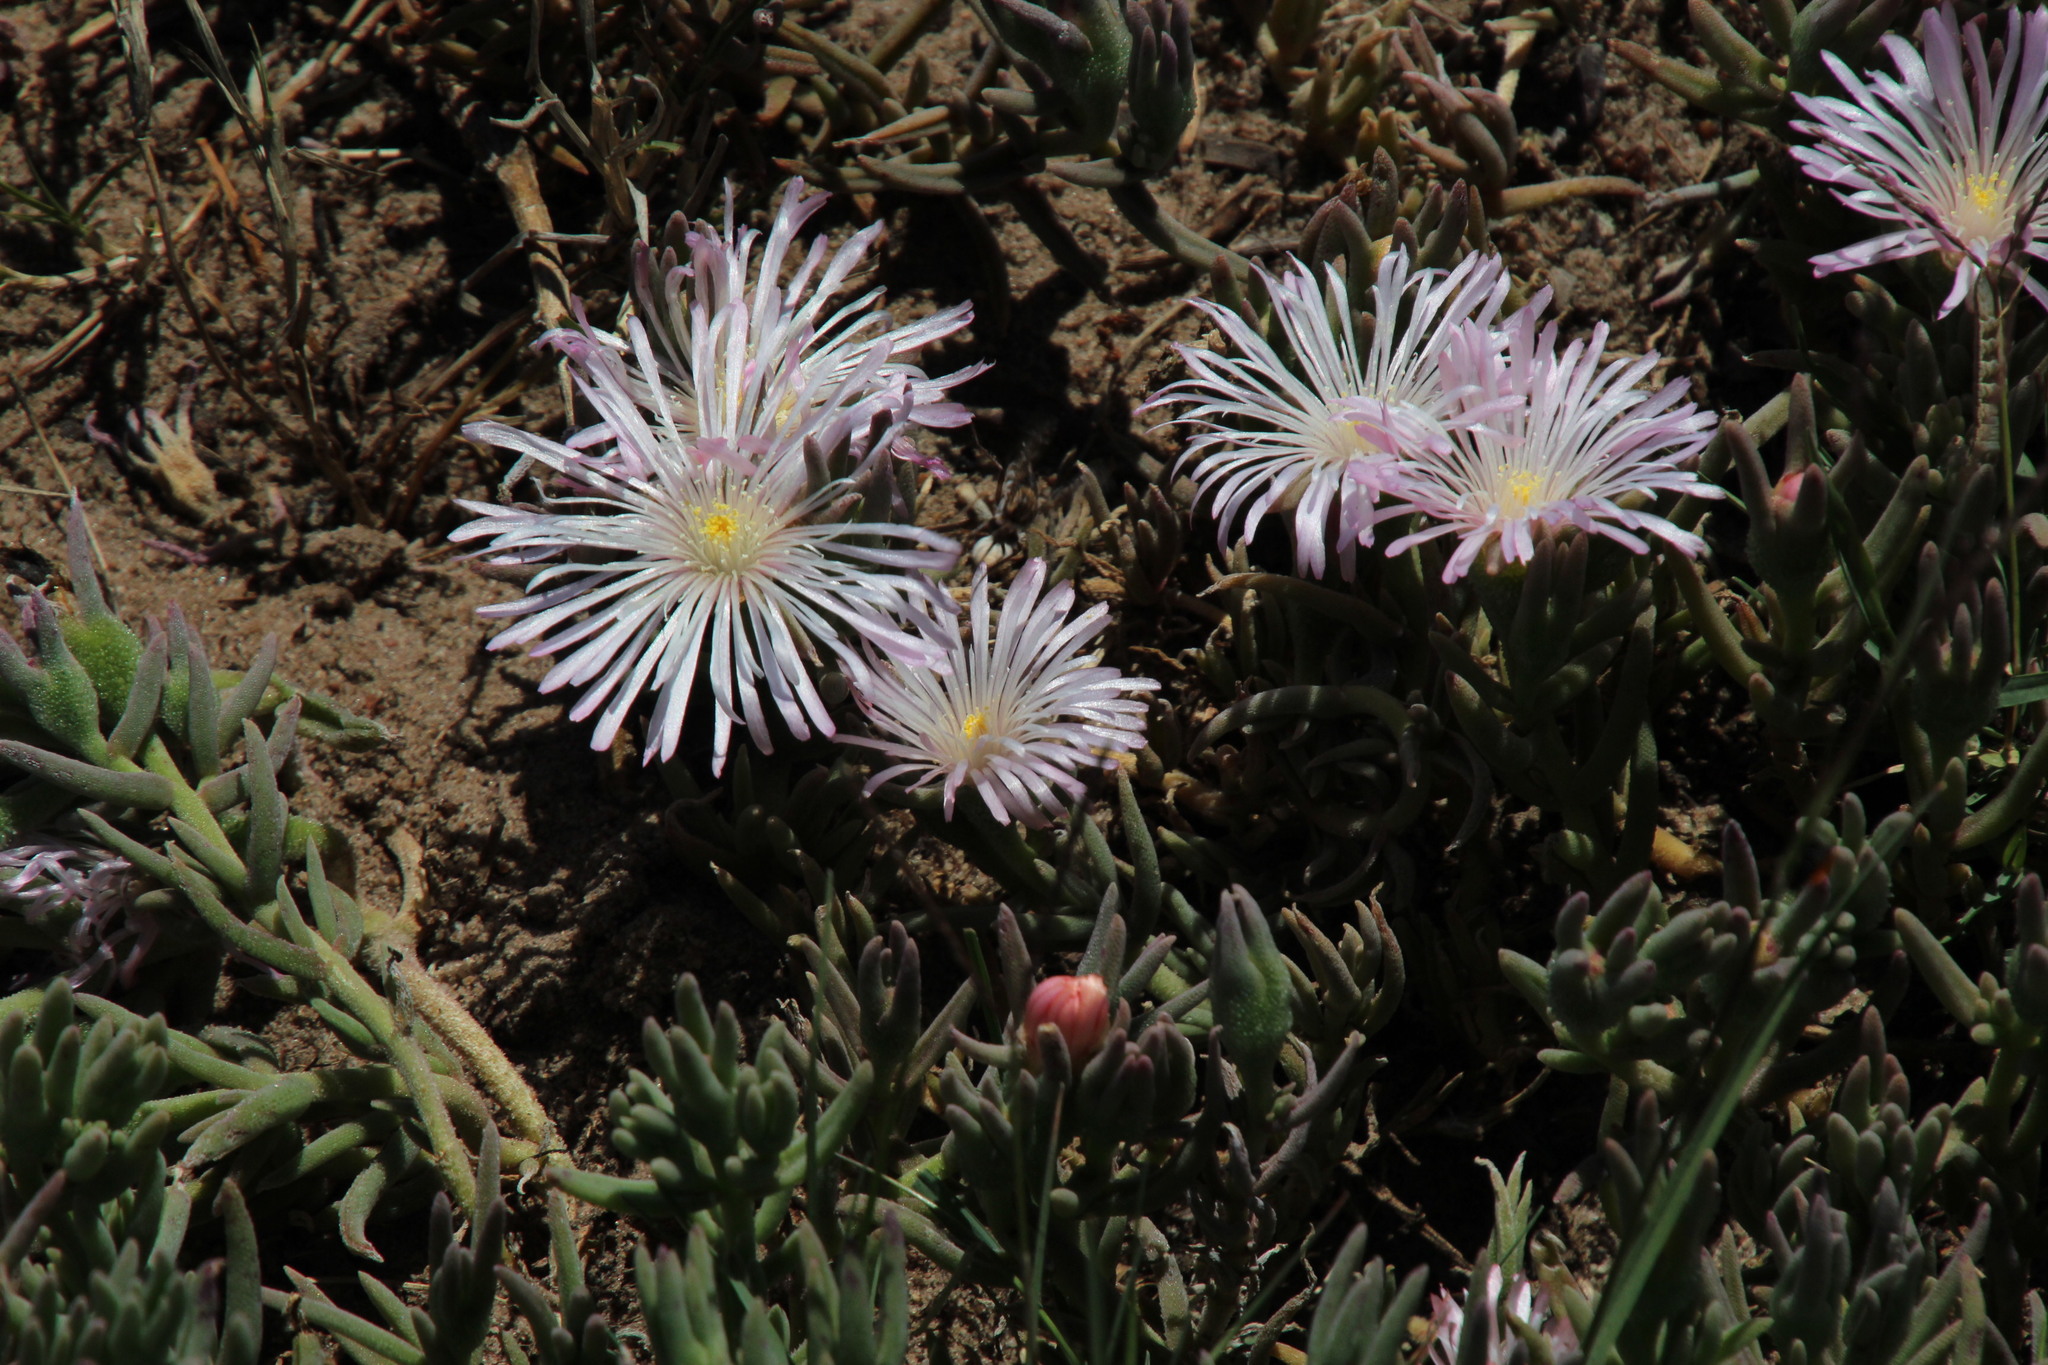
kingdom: Plantae
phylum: Tracheophyta
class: Magnoliopsida
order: Caryophyllales
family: Aizoaceae
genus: Mesembryanthemum
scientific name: Mesembryanthemum canaliculatum
